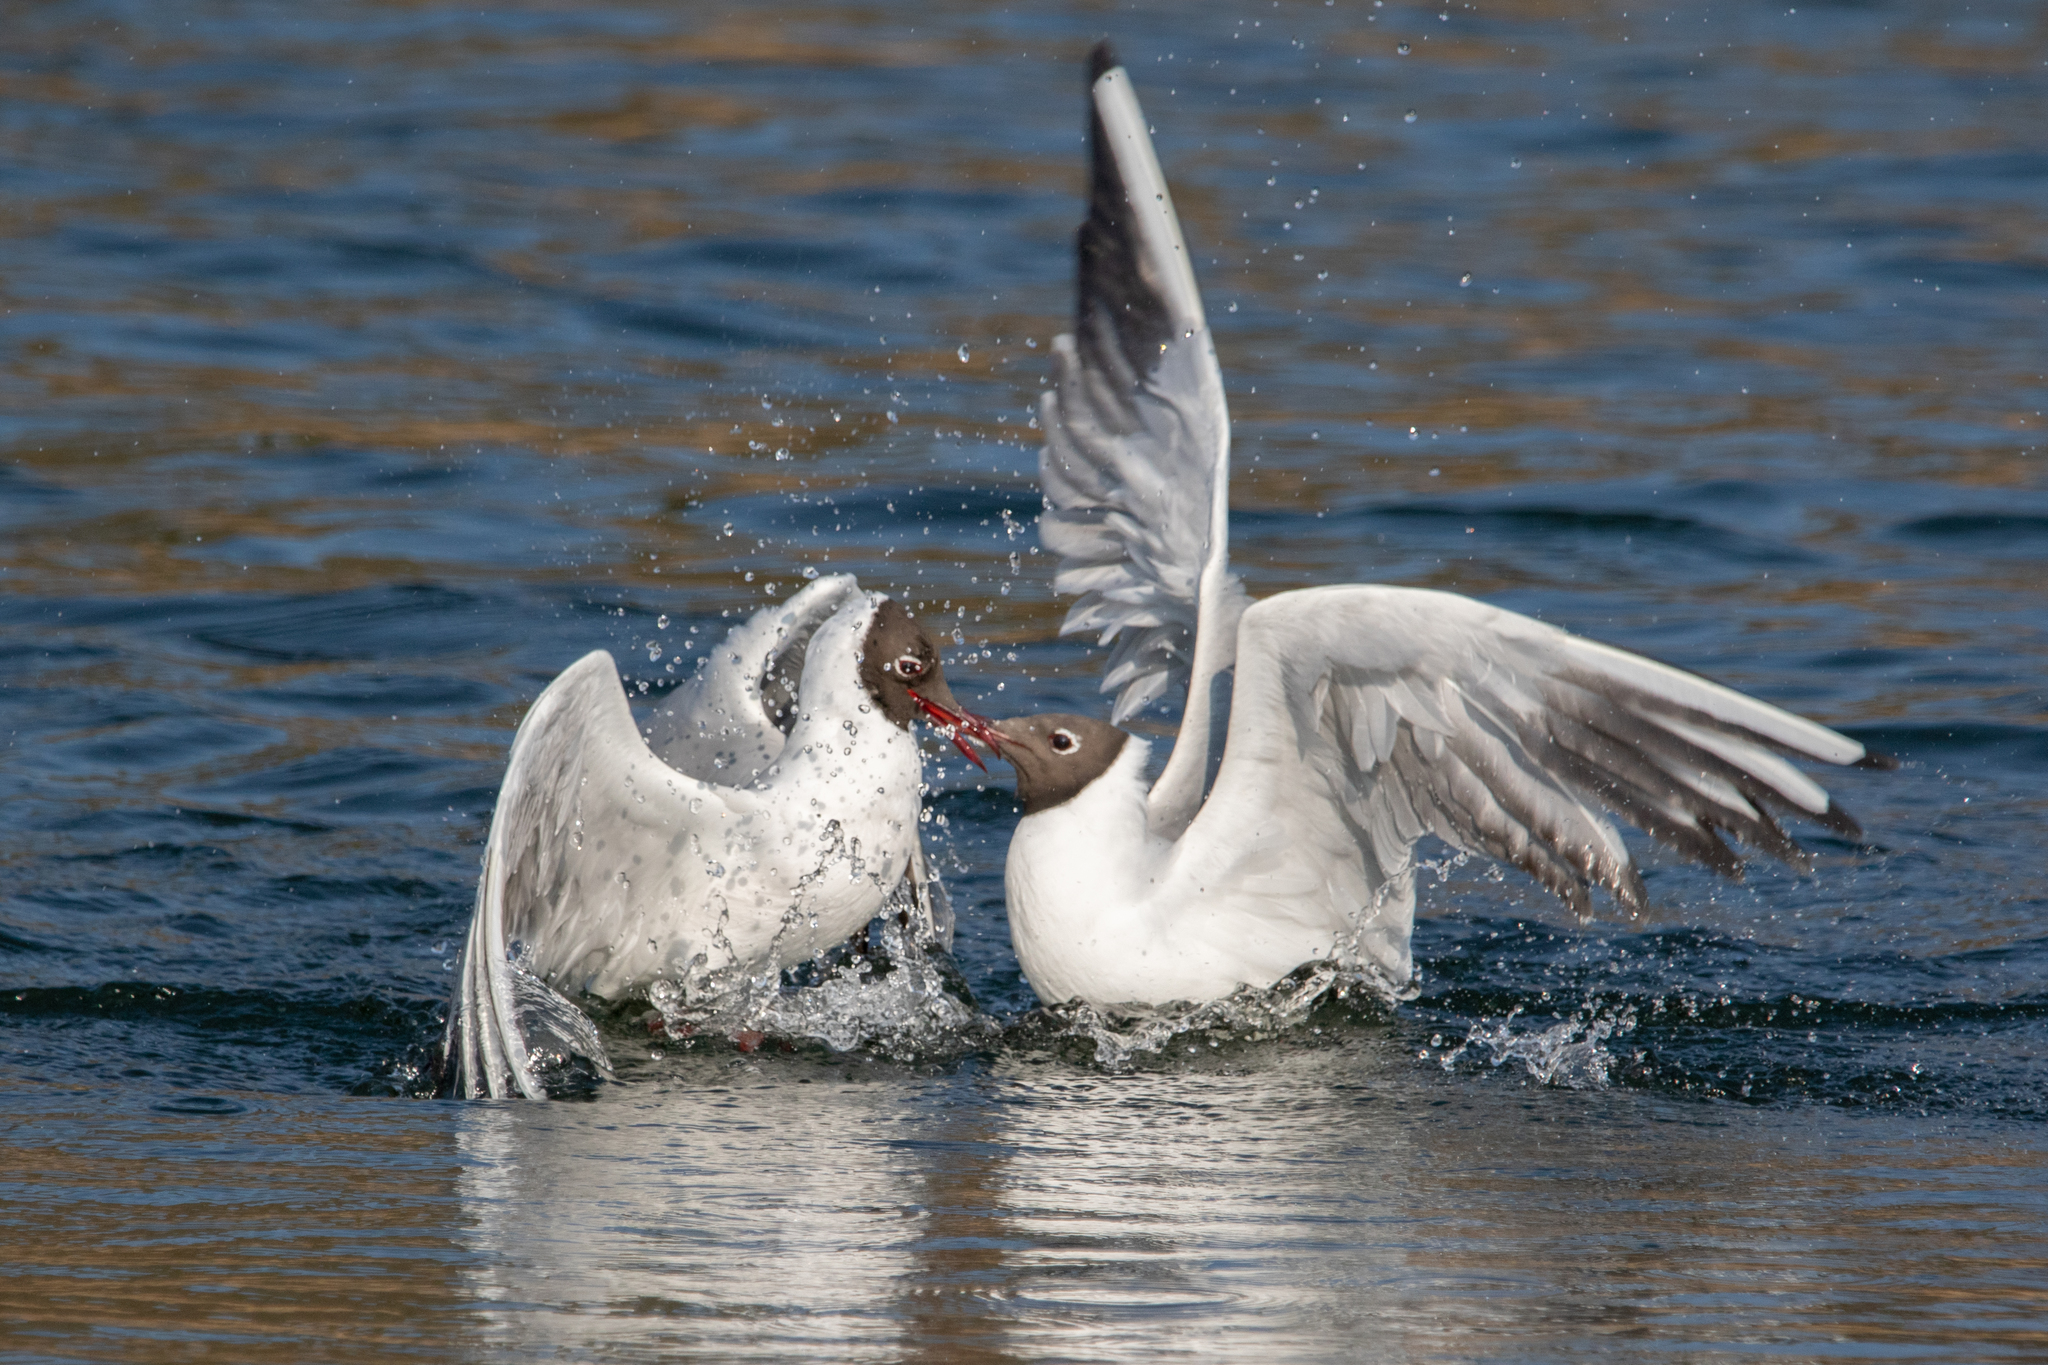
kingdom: Animalia
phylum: Chordata
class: Aves
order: Charadriiformes
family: Laridae
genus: Chroicocephalus
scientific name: Chroicocephalus ridibundus
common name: Black-headed gull
